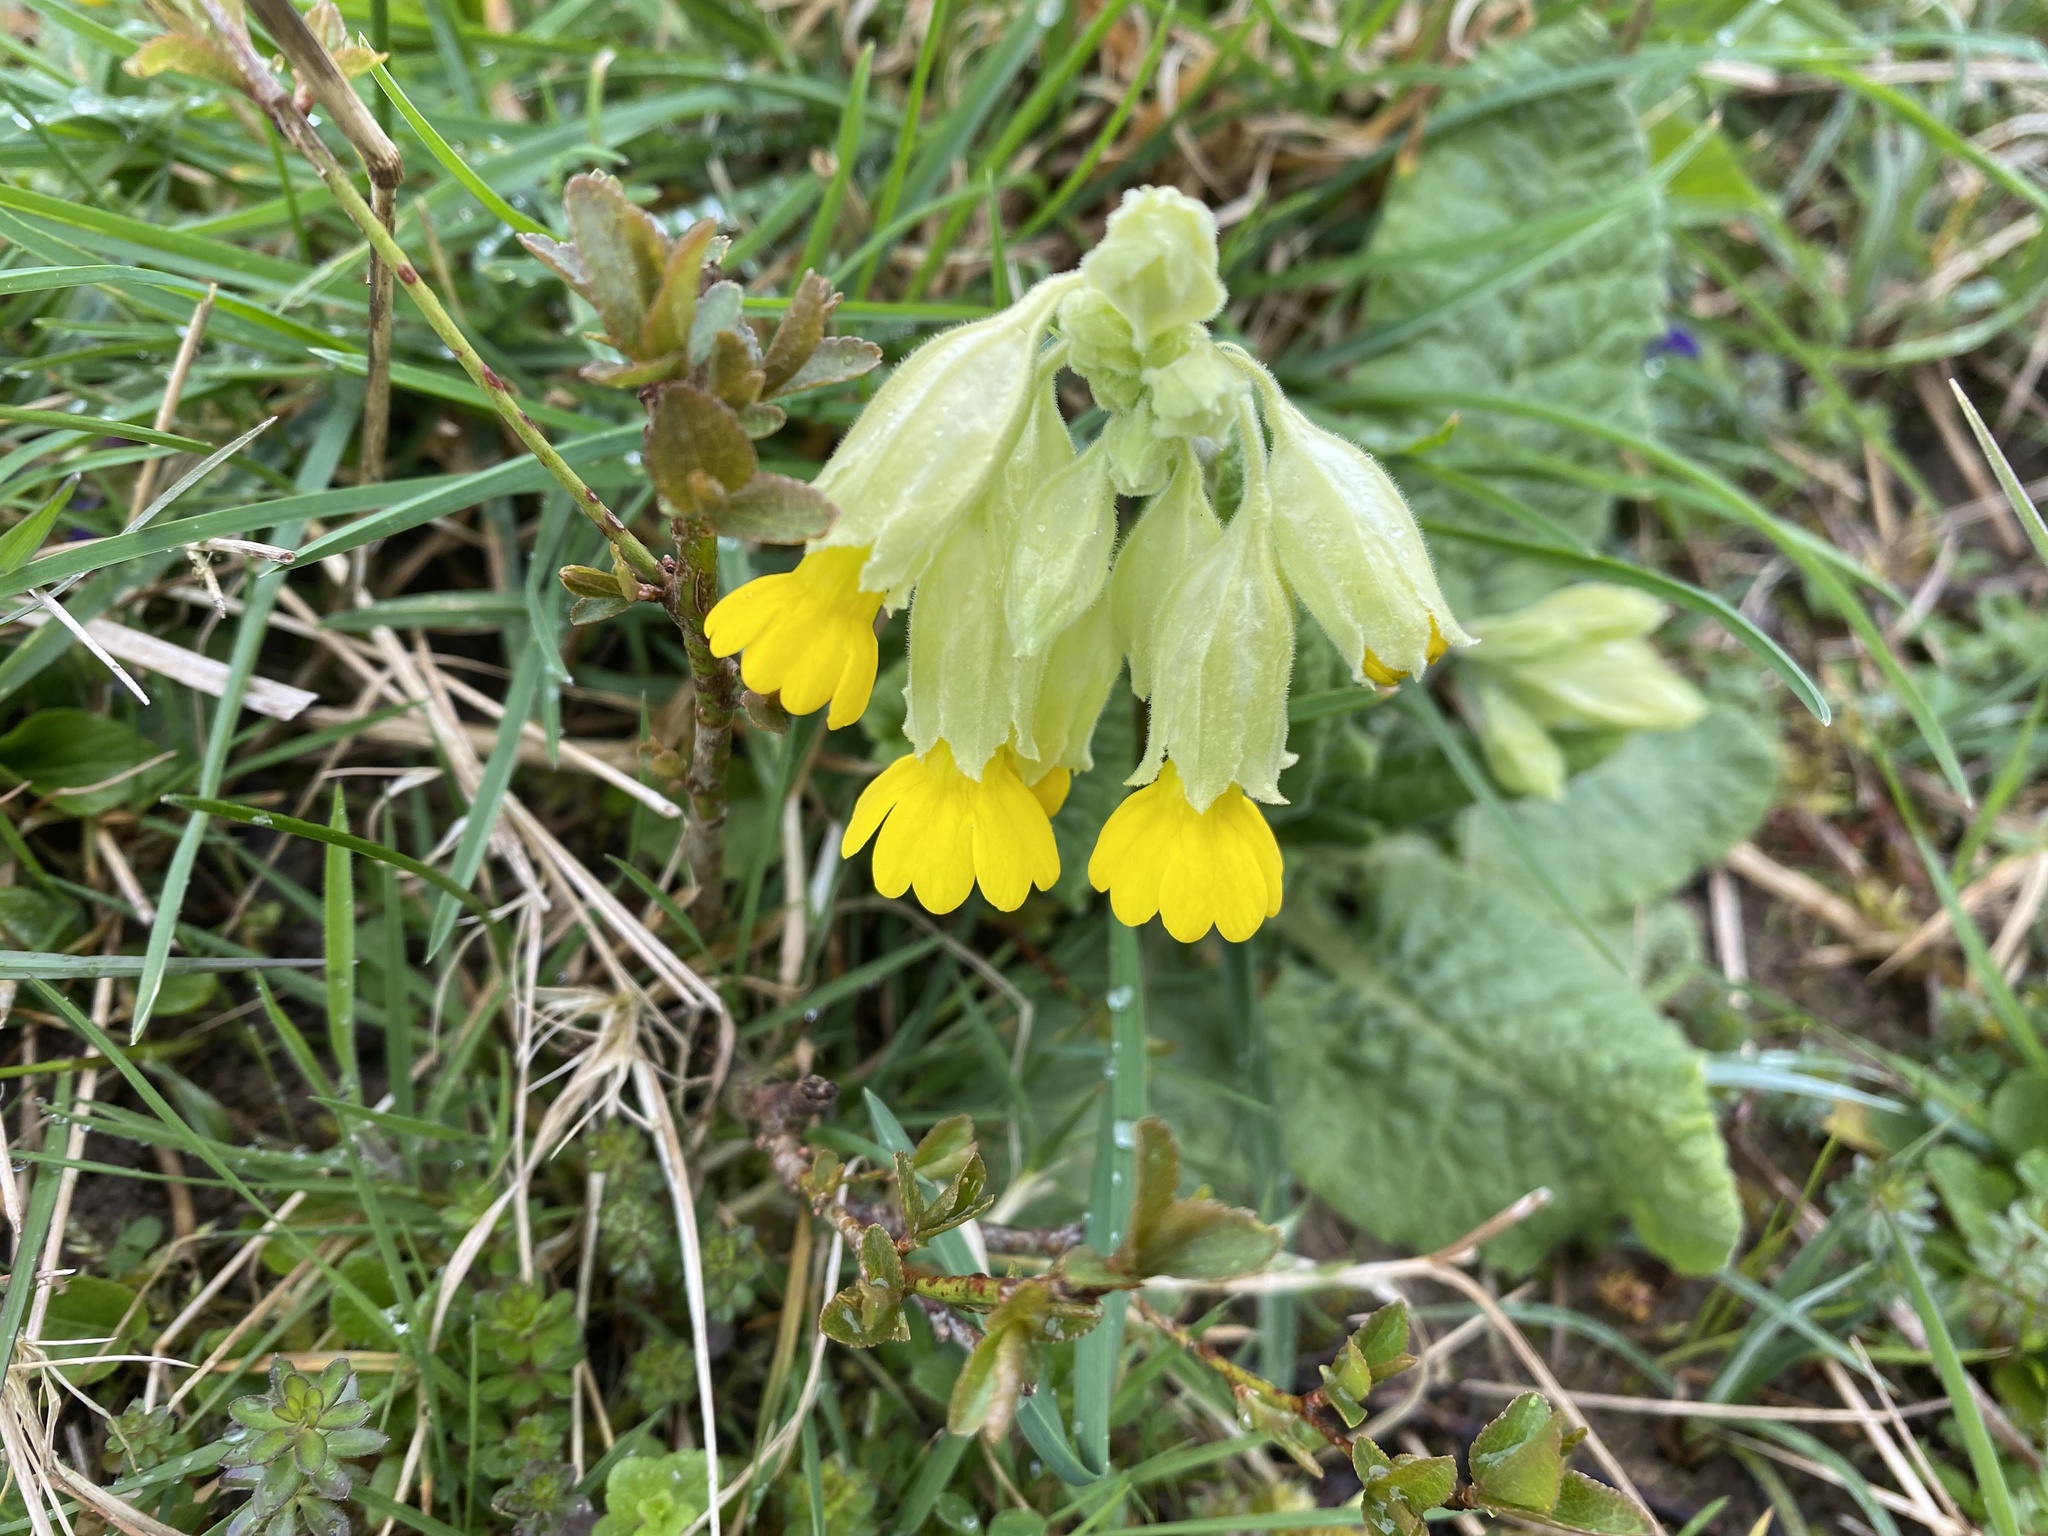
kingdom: Plantae
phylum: Tracheophyta
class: Magnoliopsida
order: Ericales
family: Primulaceae
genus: Primula
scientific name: Primula veris
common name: Cowslip
